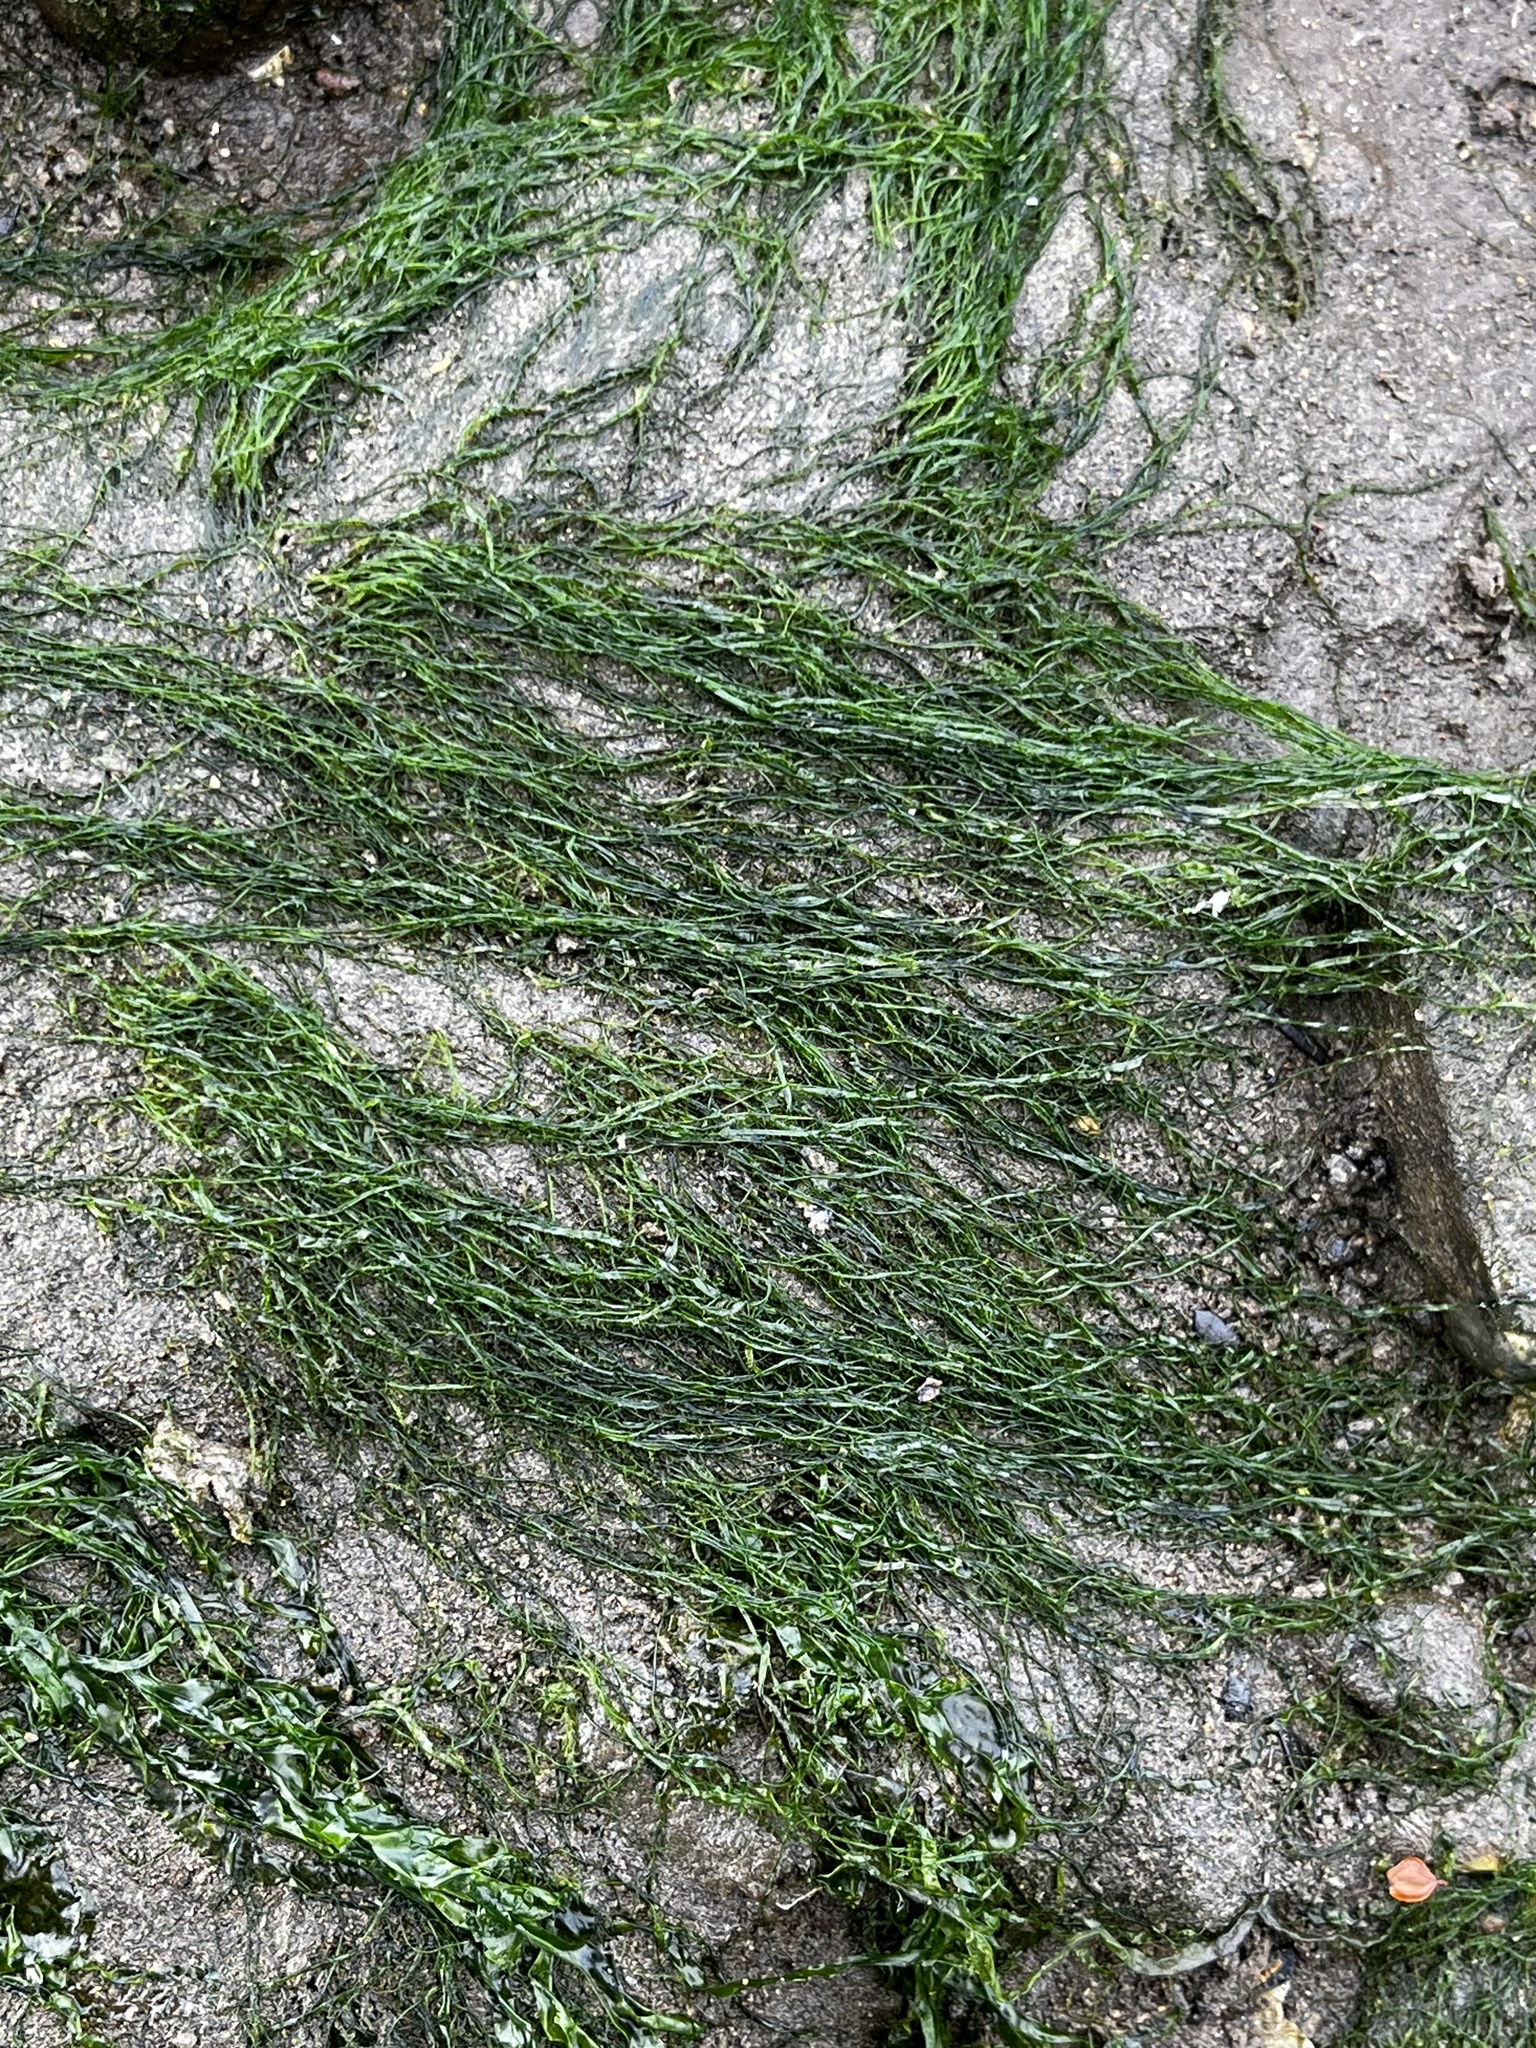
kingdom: Plantae
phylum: Chlorophyta
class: Ulvophyceae
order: Ulvales
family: Ulvaceae
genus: Ulva
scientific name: Ulva intestinalis
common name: Gut weed
